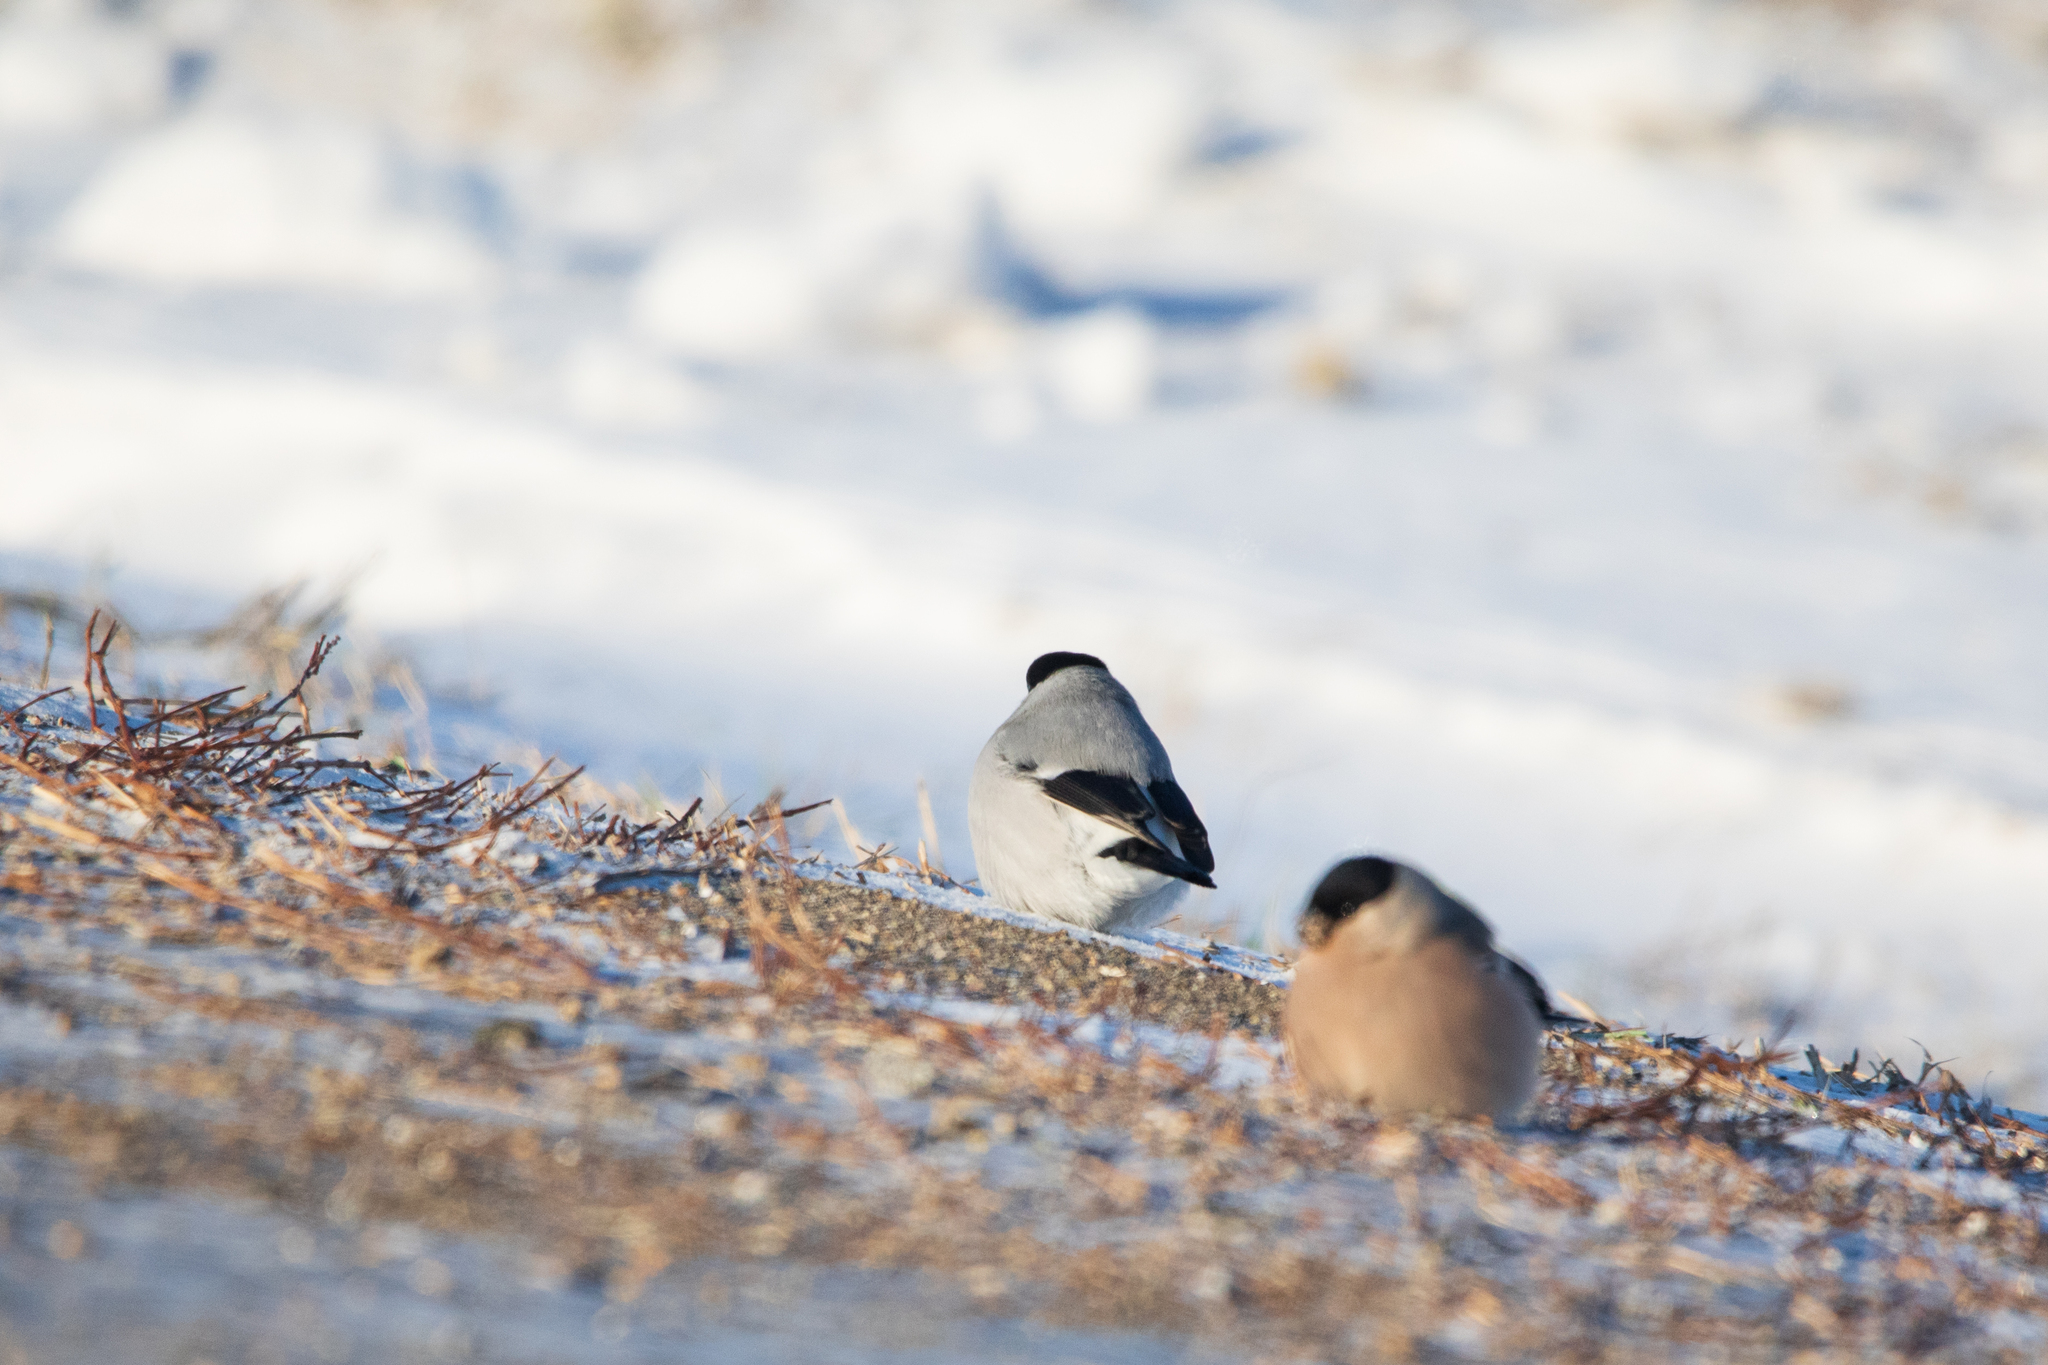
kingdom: Animalia
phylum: Chordata
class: Aves
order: Passeriformes
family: Fringillidae
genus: Pyrrhula
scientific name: Pyrrhula pyrrhula
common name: Eurasian bullfinch
